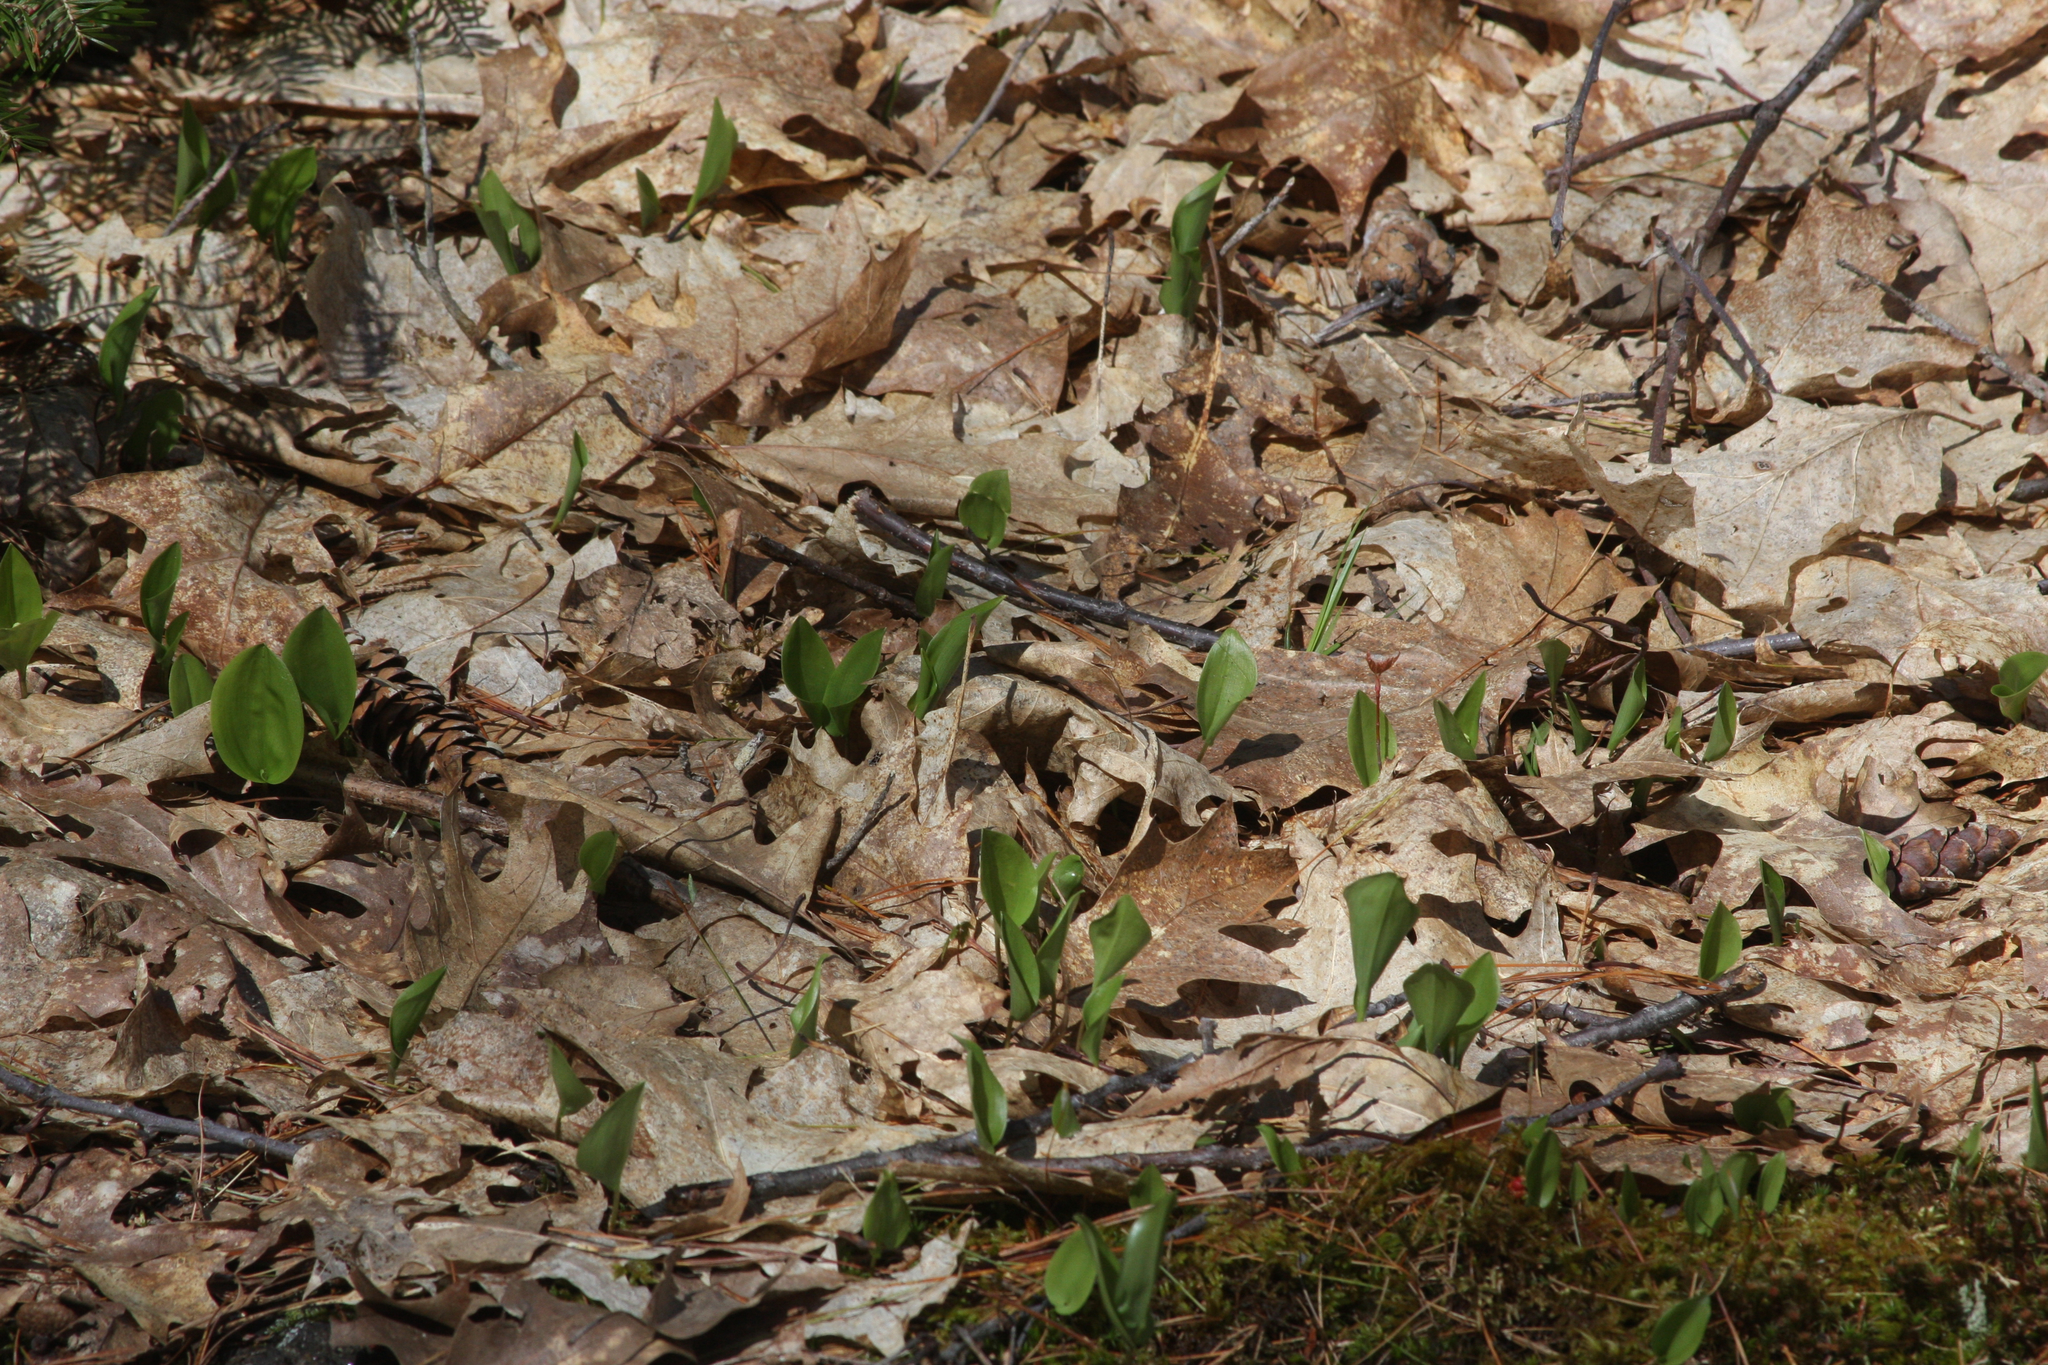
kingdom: Plantae
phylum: Tracheophyta
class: Liliopsida
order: Asparagales
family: Asparagaceae
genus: Maianthemum
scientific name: Maianthemum canadense
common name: False lily-of-the-valley
